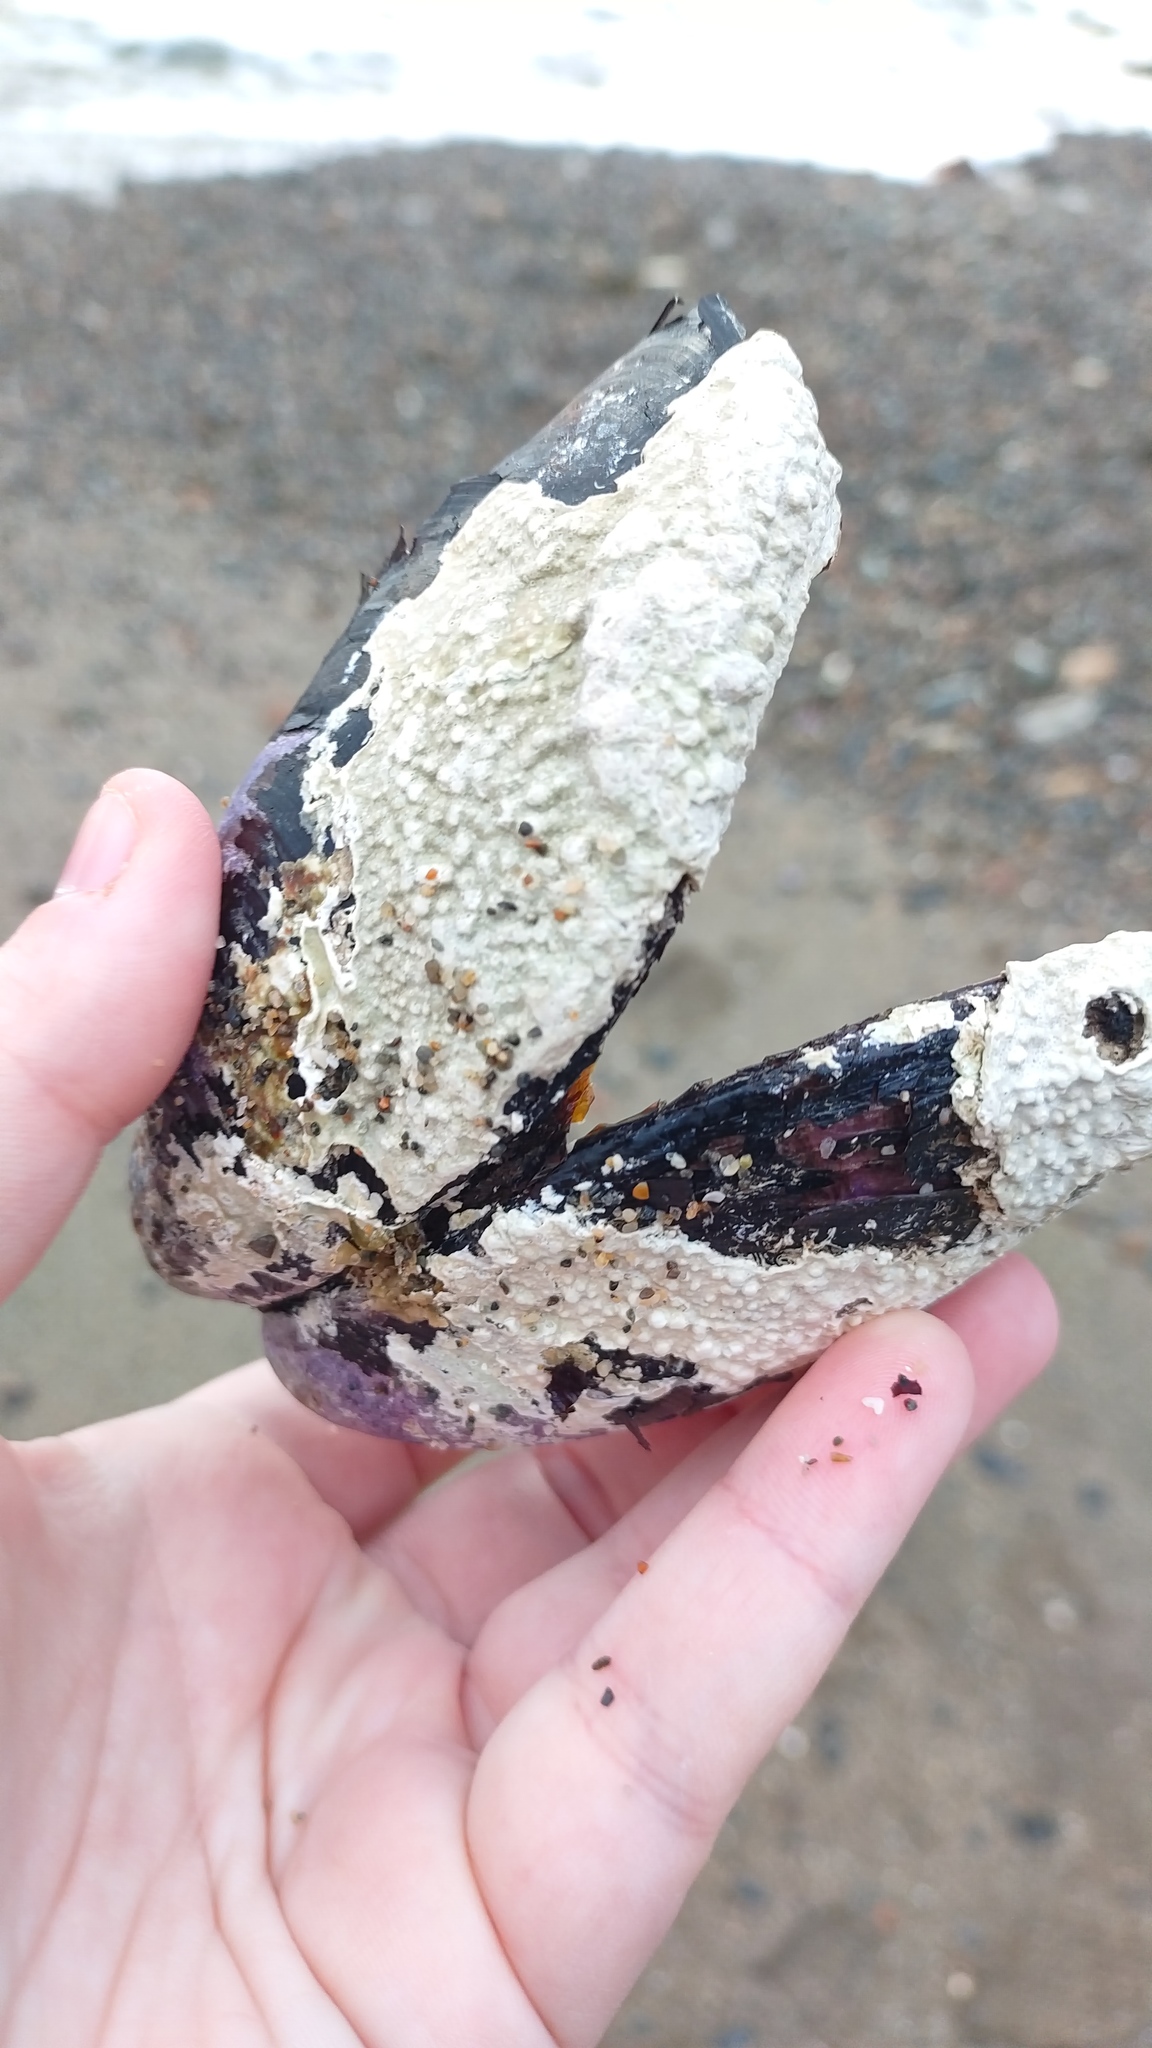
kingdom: Animalia
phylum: Mollusca
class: Bivalvia
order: Mytilida
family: Mytilidae
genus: Modiolus
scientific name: Modiolus modiolus
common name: Horse-mussel
